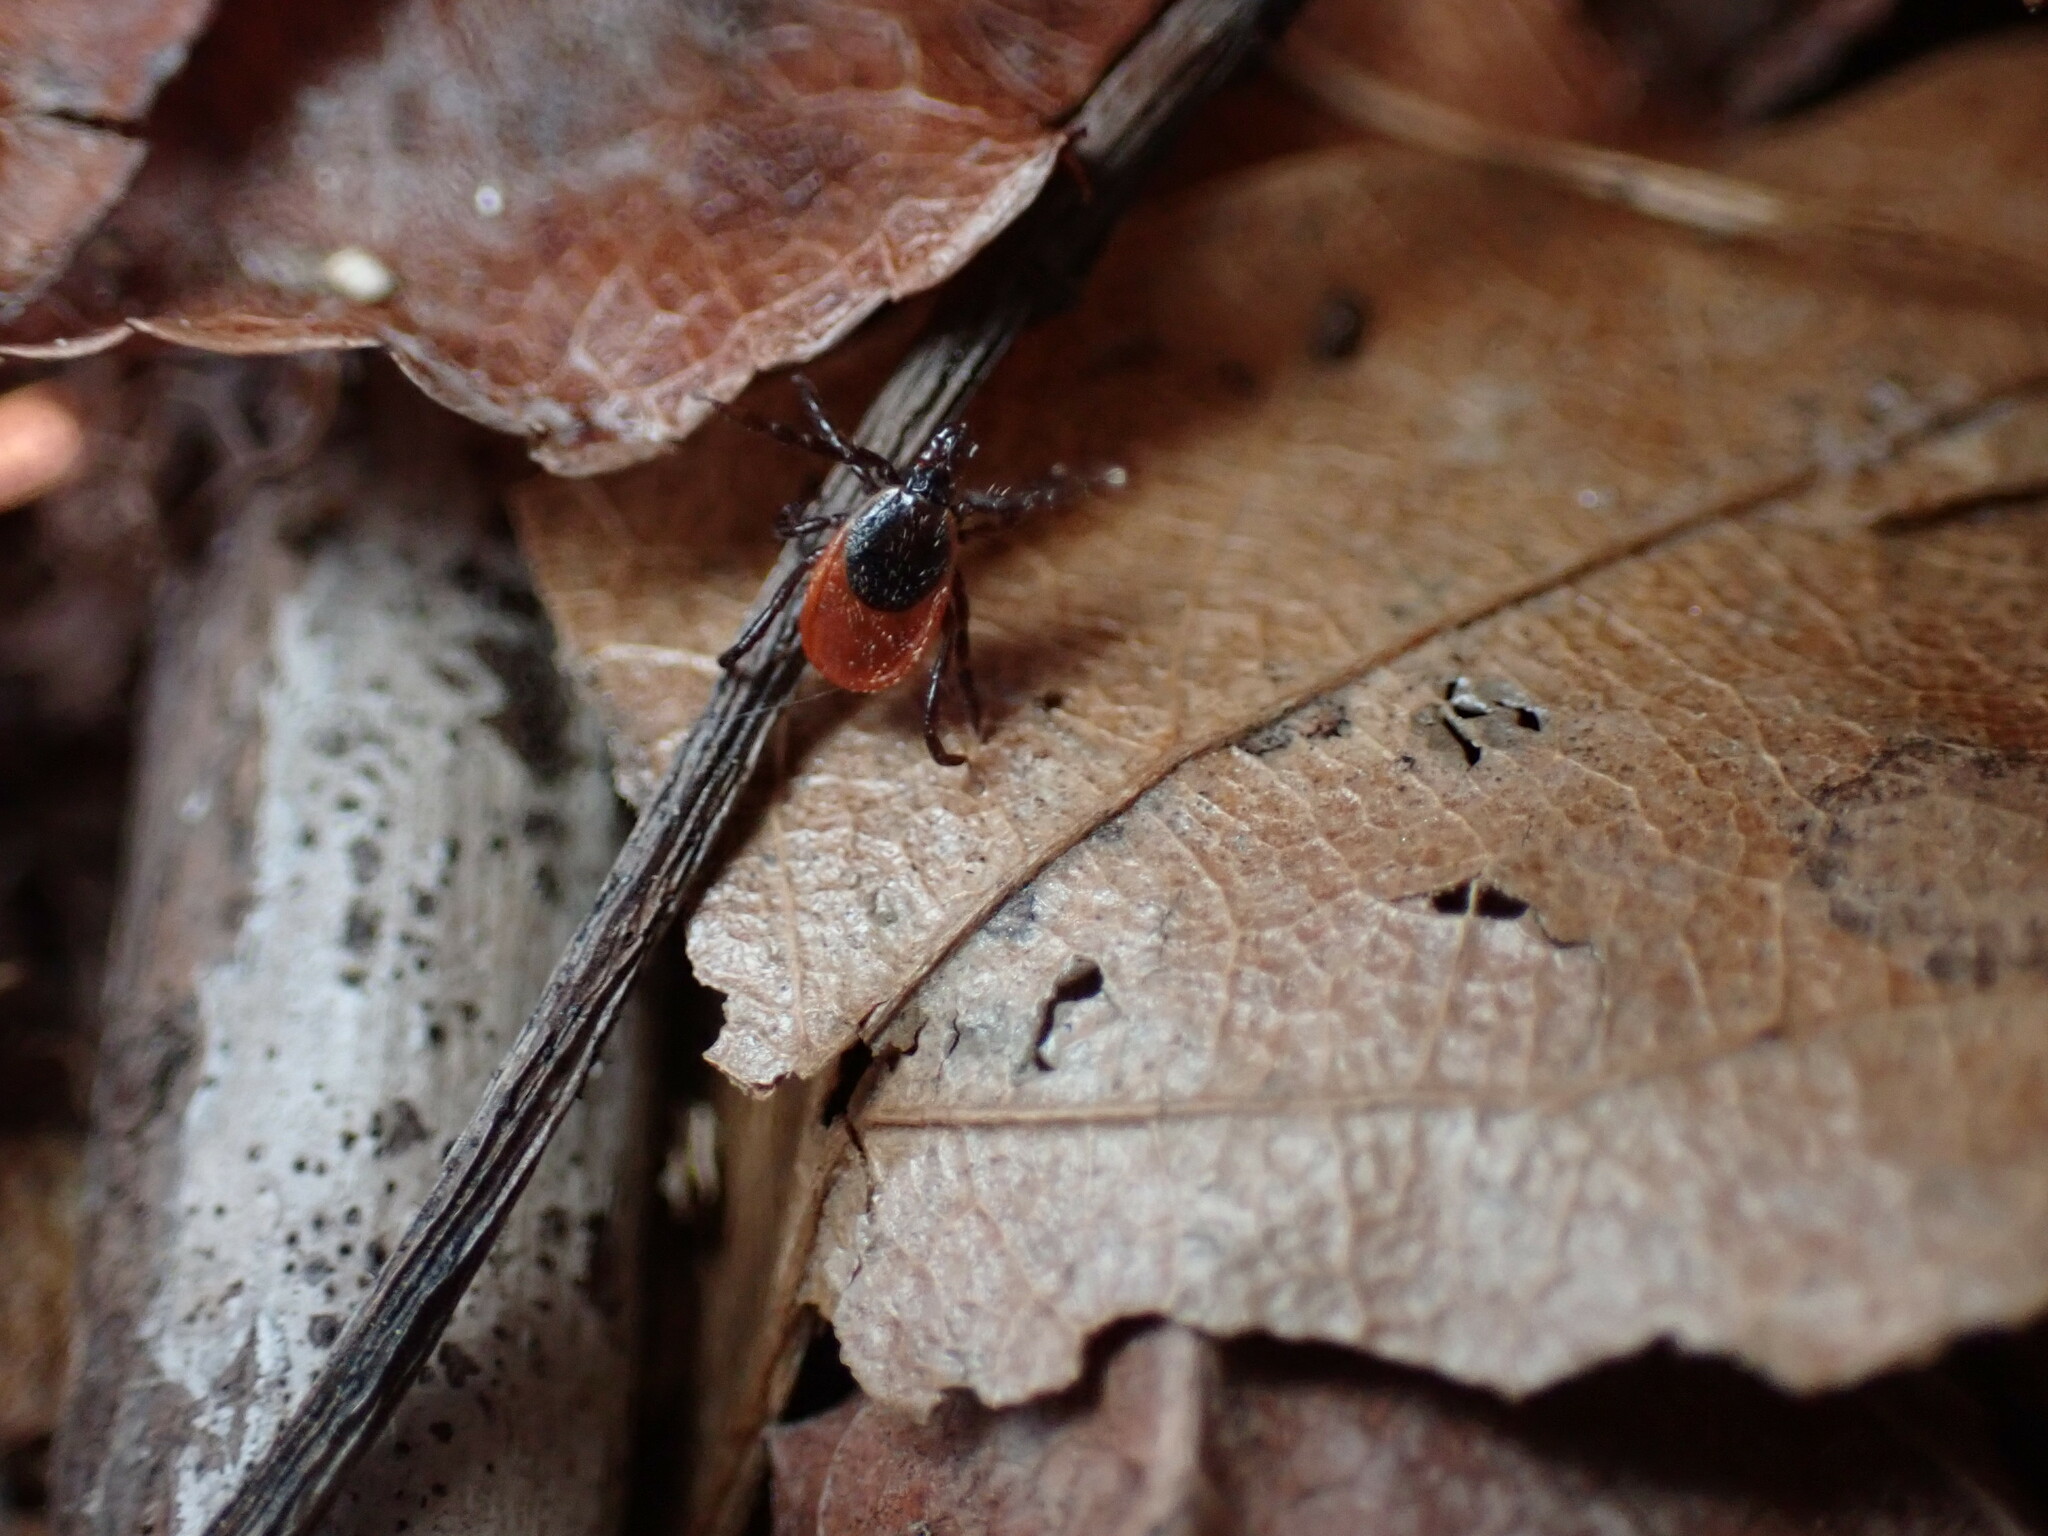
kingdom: Animalia
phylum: Arthropoda
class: Arachnida
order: Ixodida
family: Ixodidae
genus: Ixodes
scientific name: Ixodes scapularis
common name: Black legged tick
